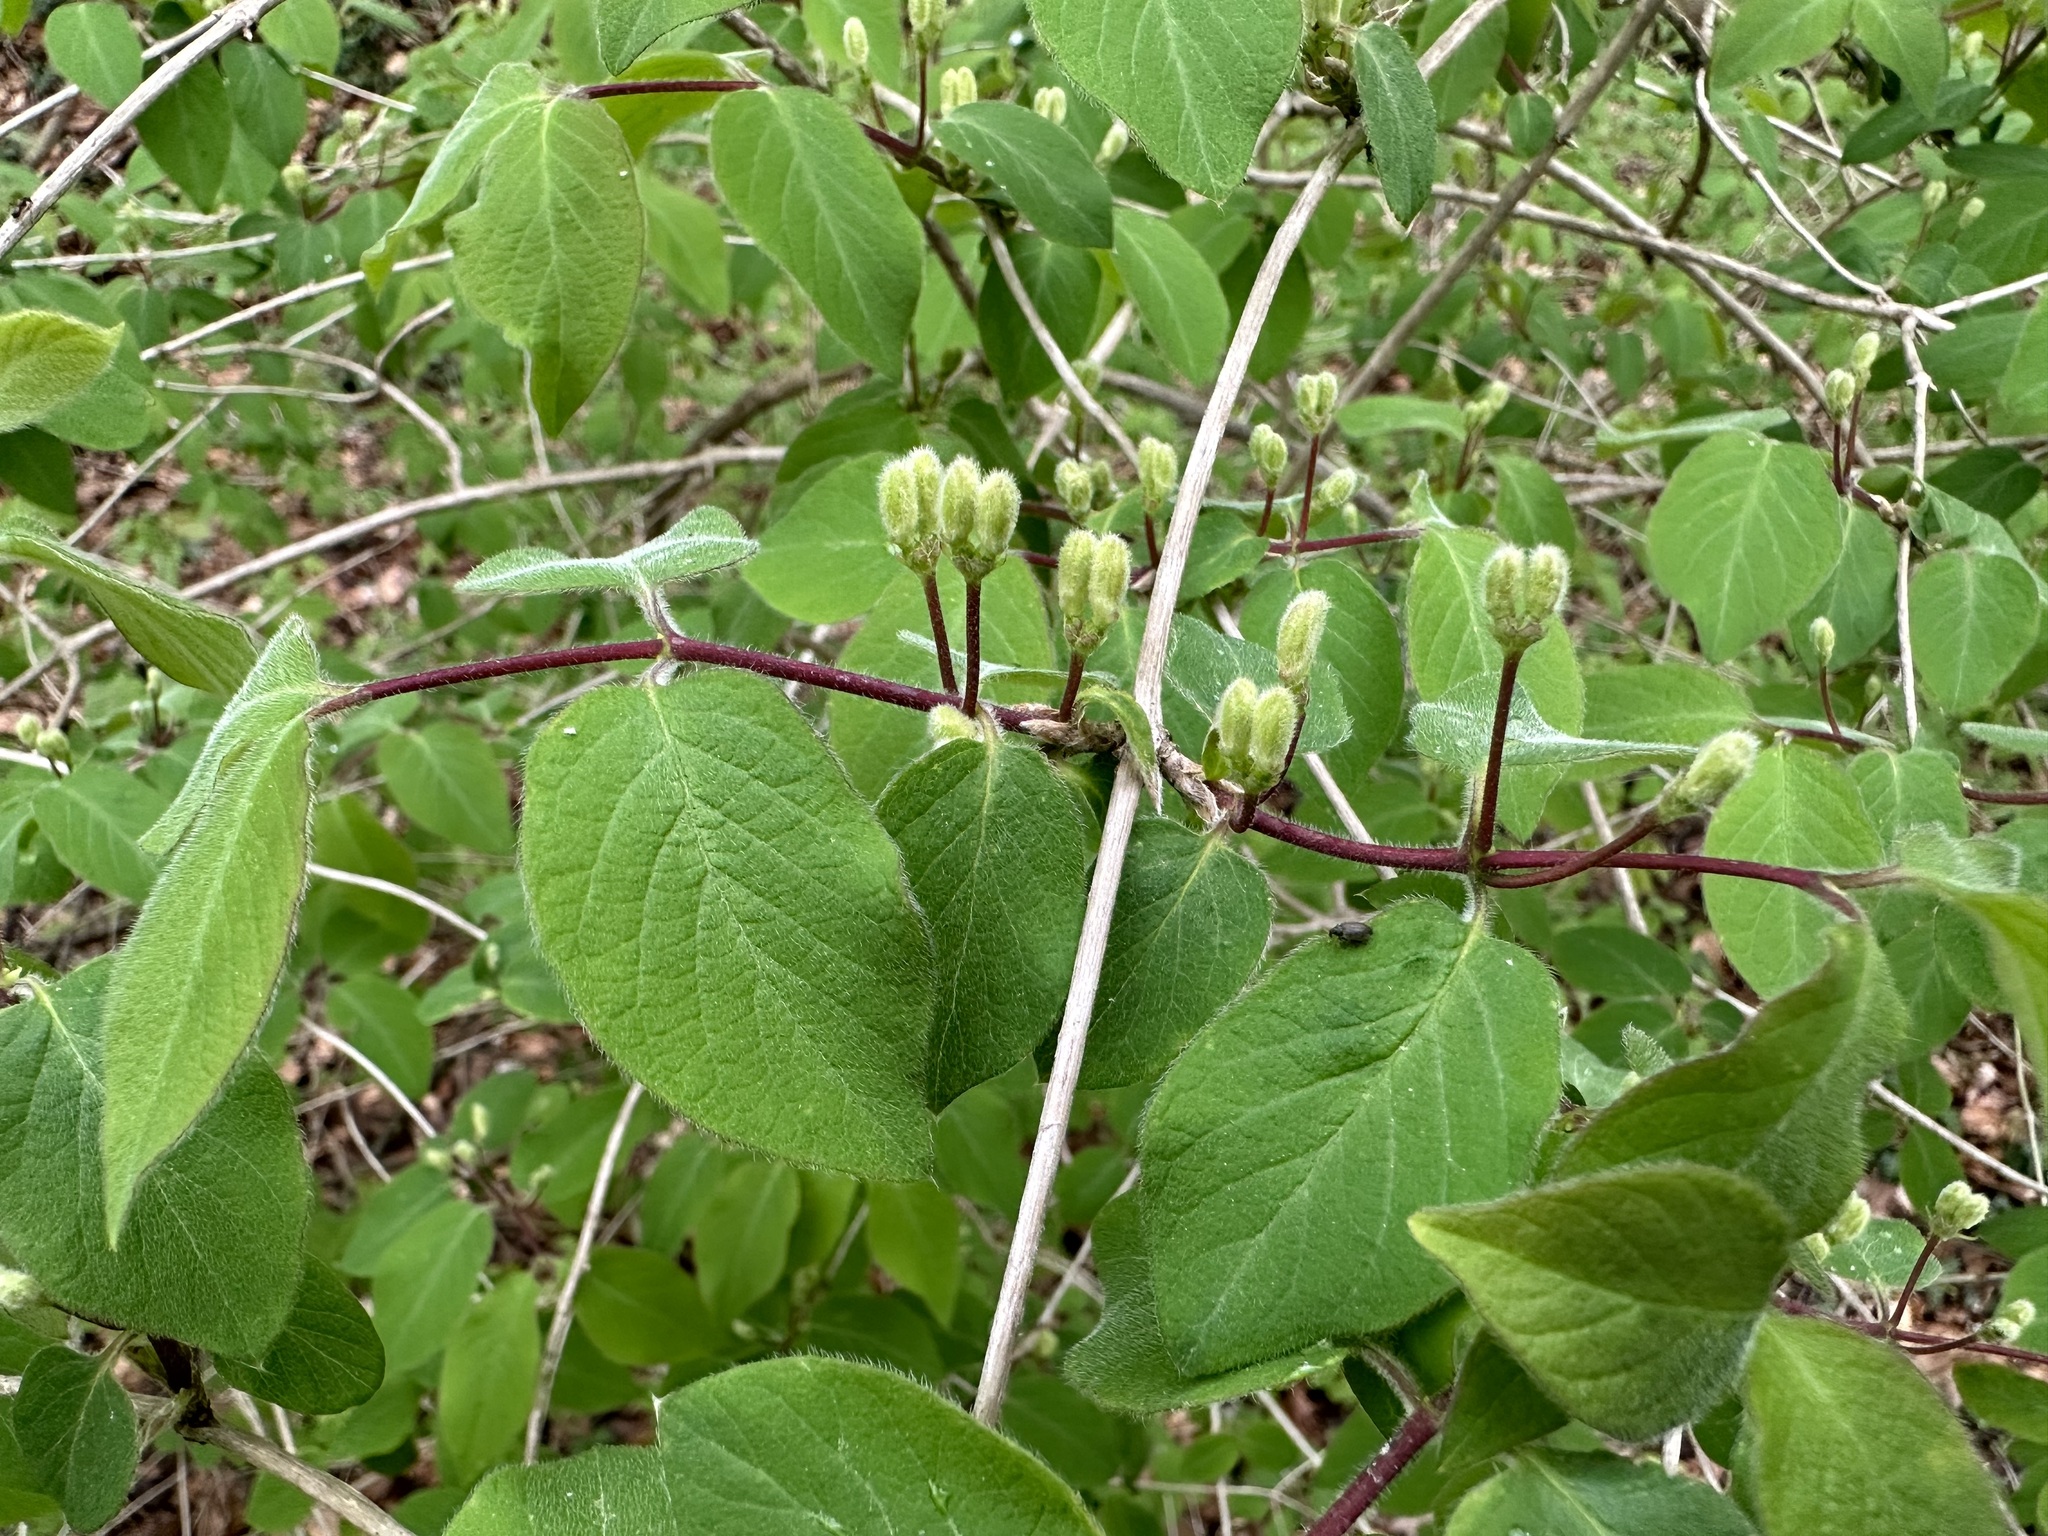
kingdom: Plantae
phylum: Tracheophyta
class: Magnoliopsida
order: Dipsacales
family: Caprifoliaceae
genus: Lonicera
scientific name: Lonicera xylosteum
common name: Fly honeysuckle
